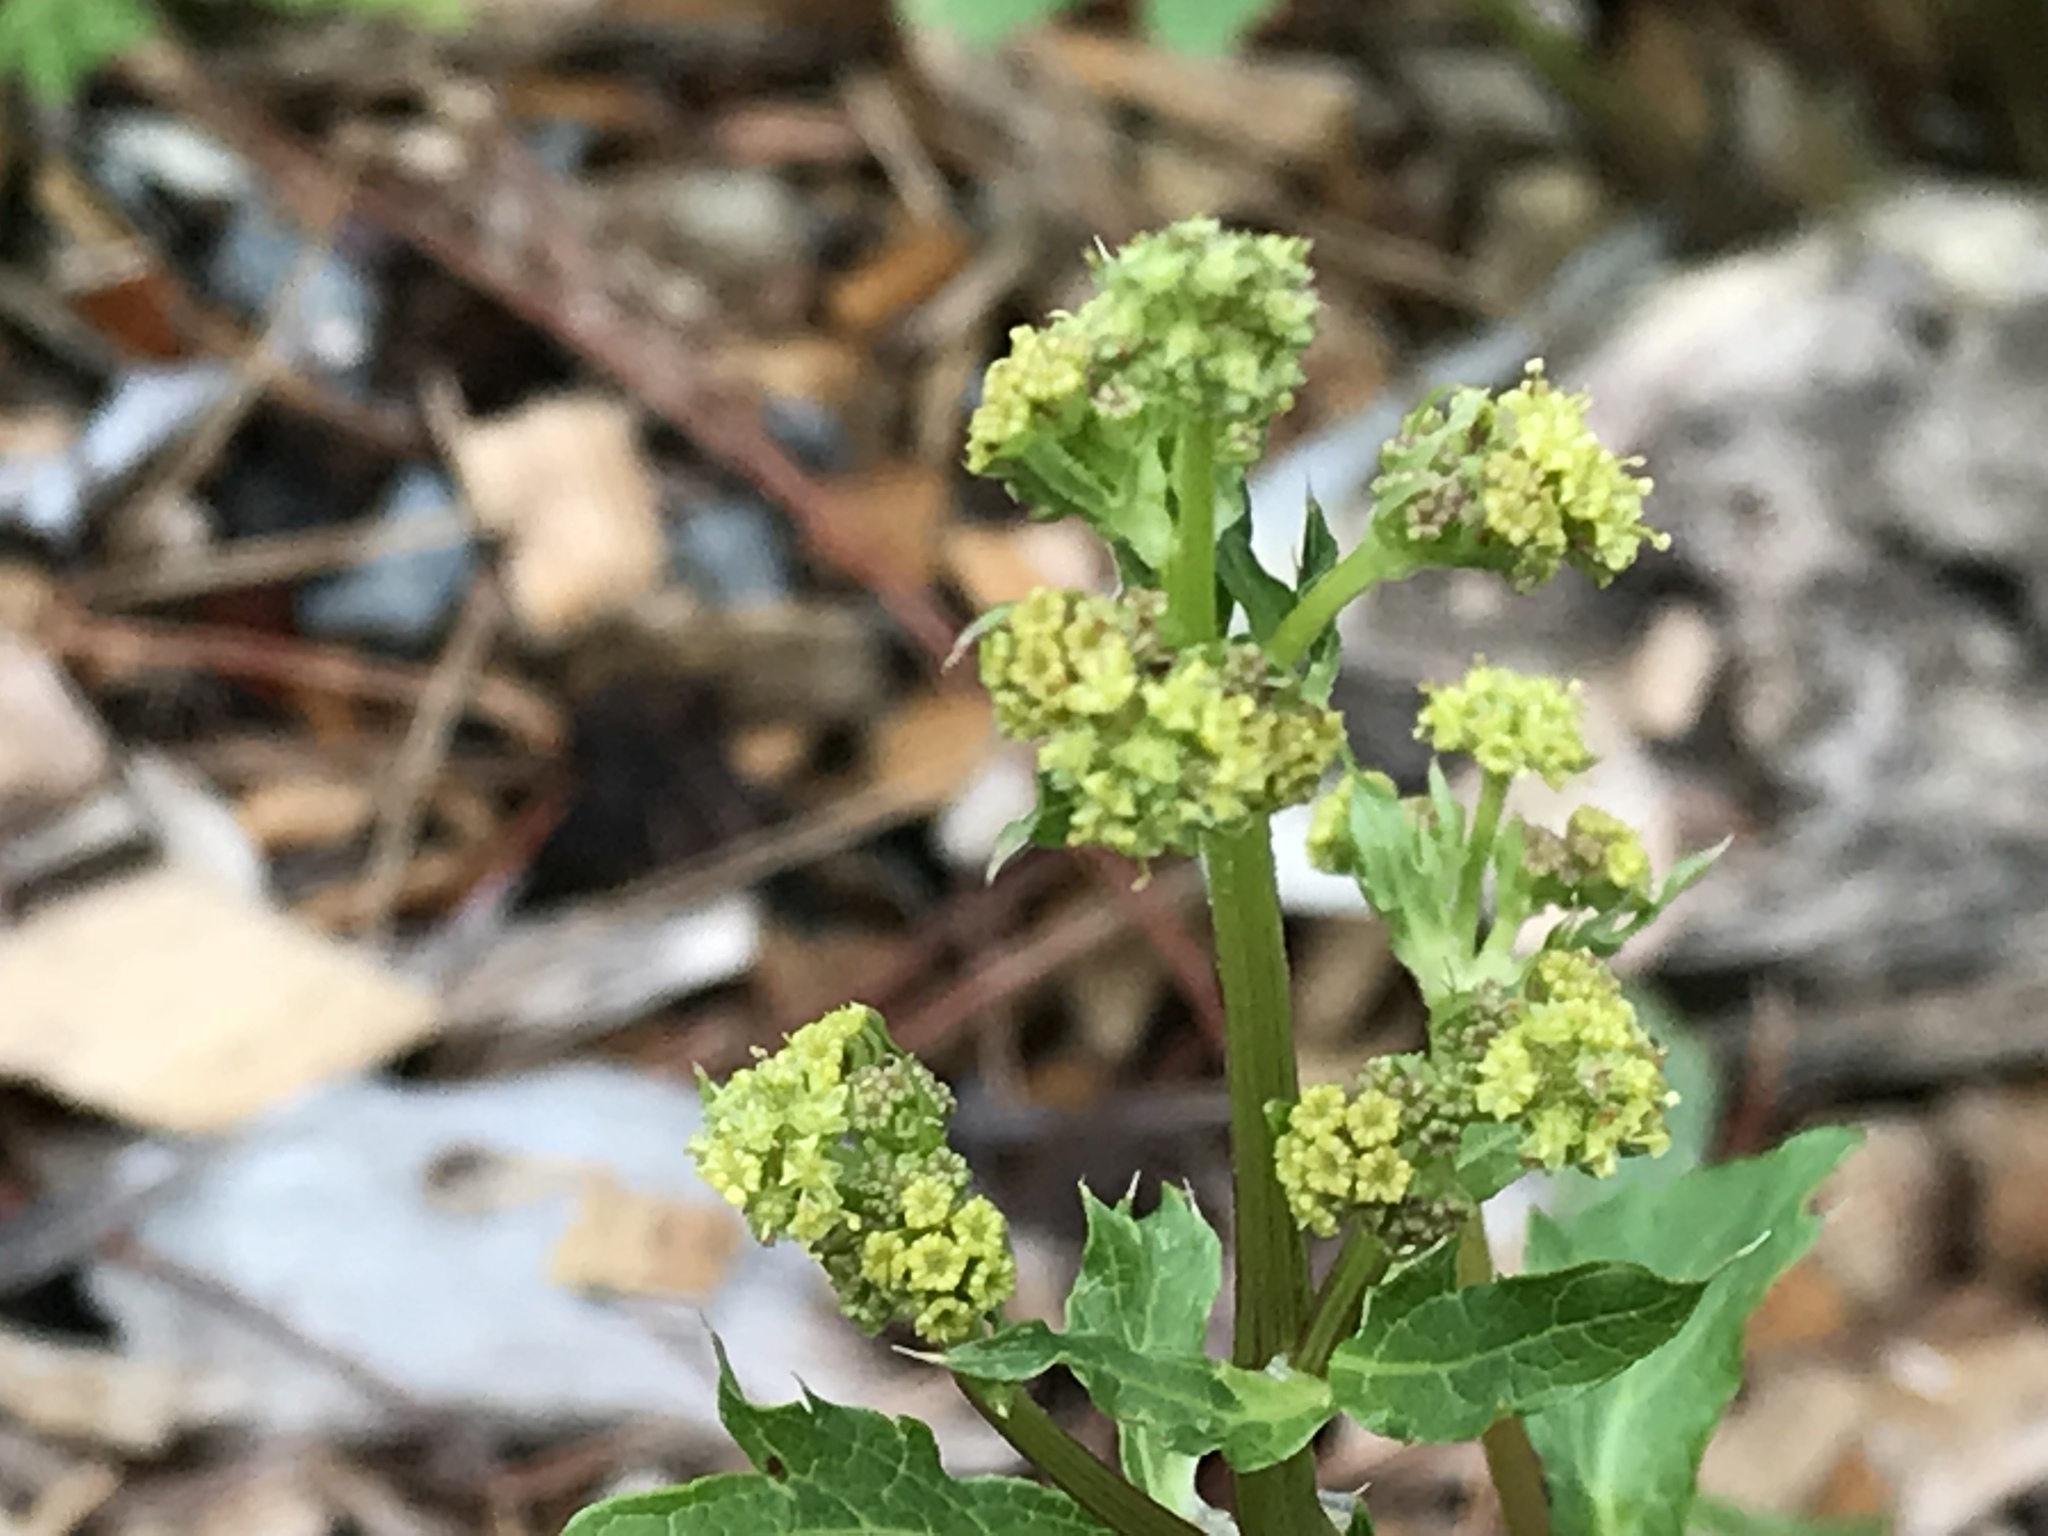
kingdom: Plantae
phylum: Tracheophyta
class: Magnoliopsida
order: Apiales
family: Apiaceae
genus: Sanicula
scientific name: Sanicula crassicaulis
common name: Western snakeroot
